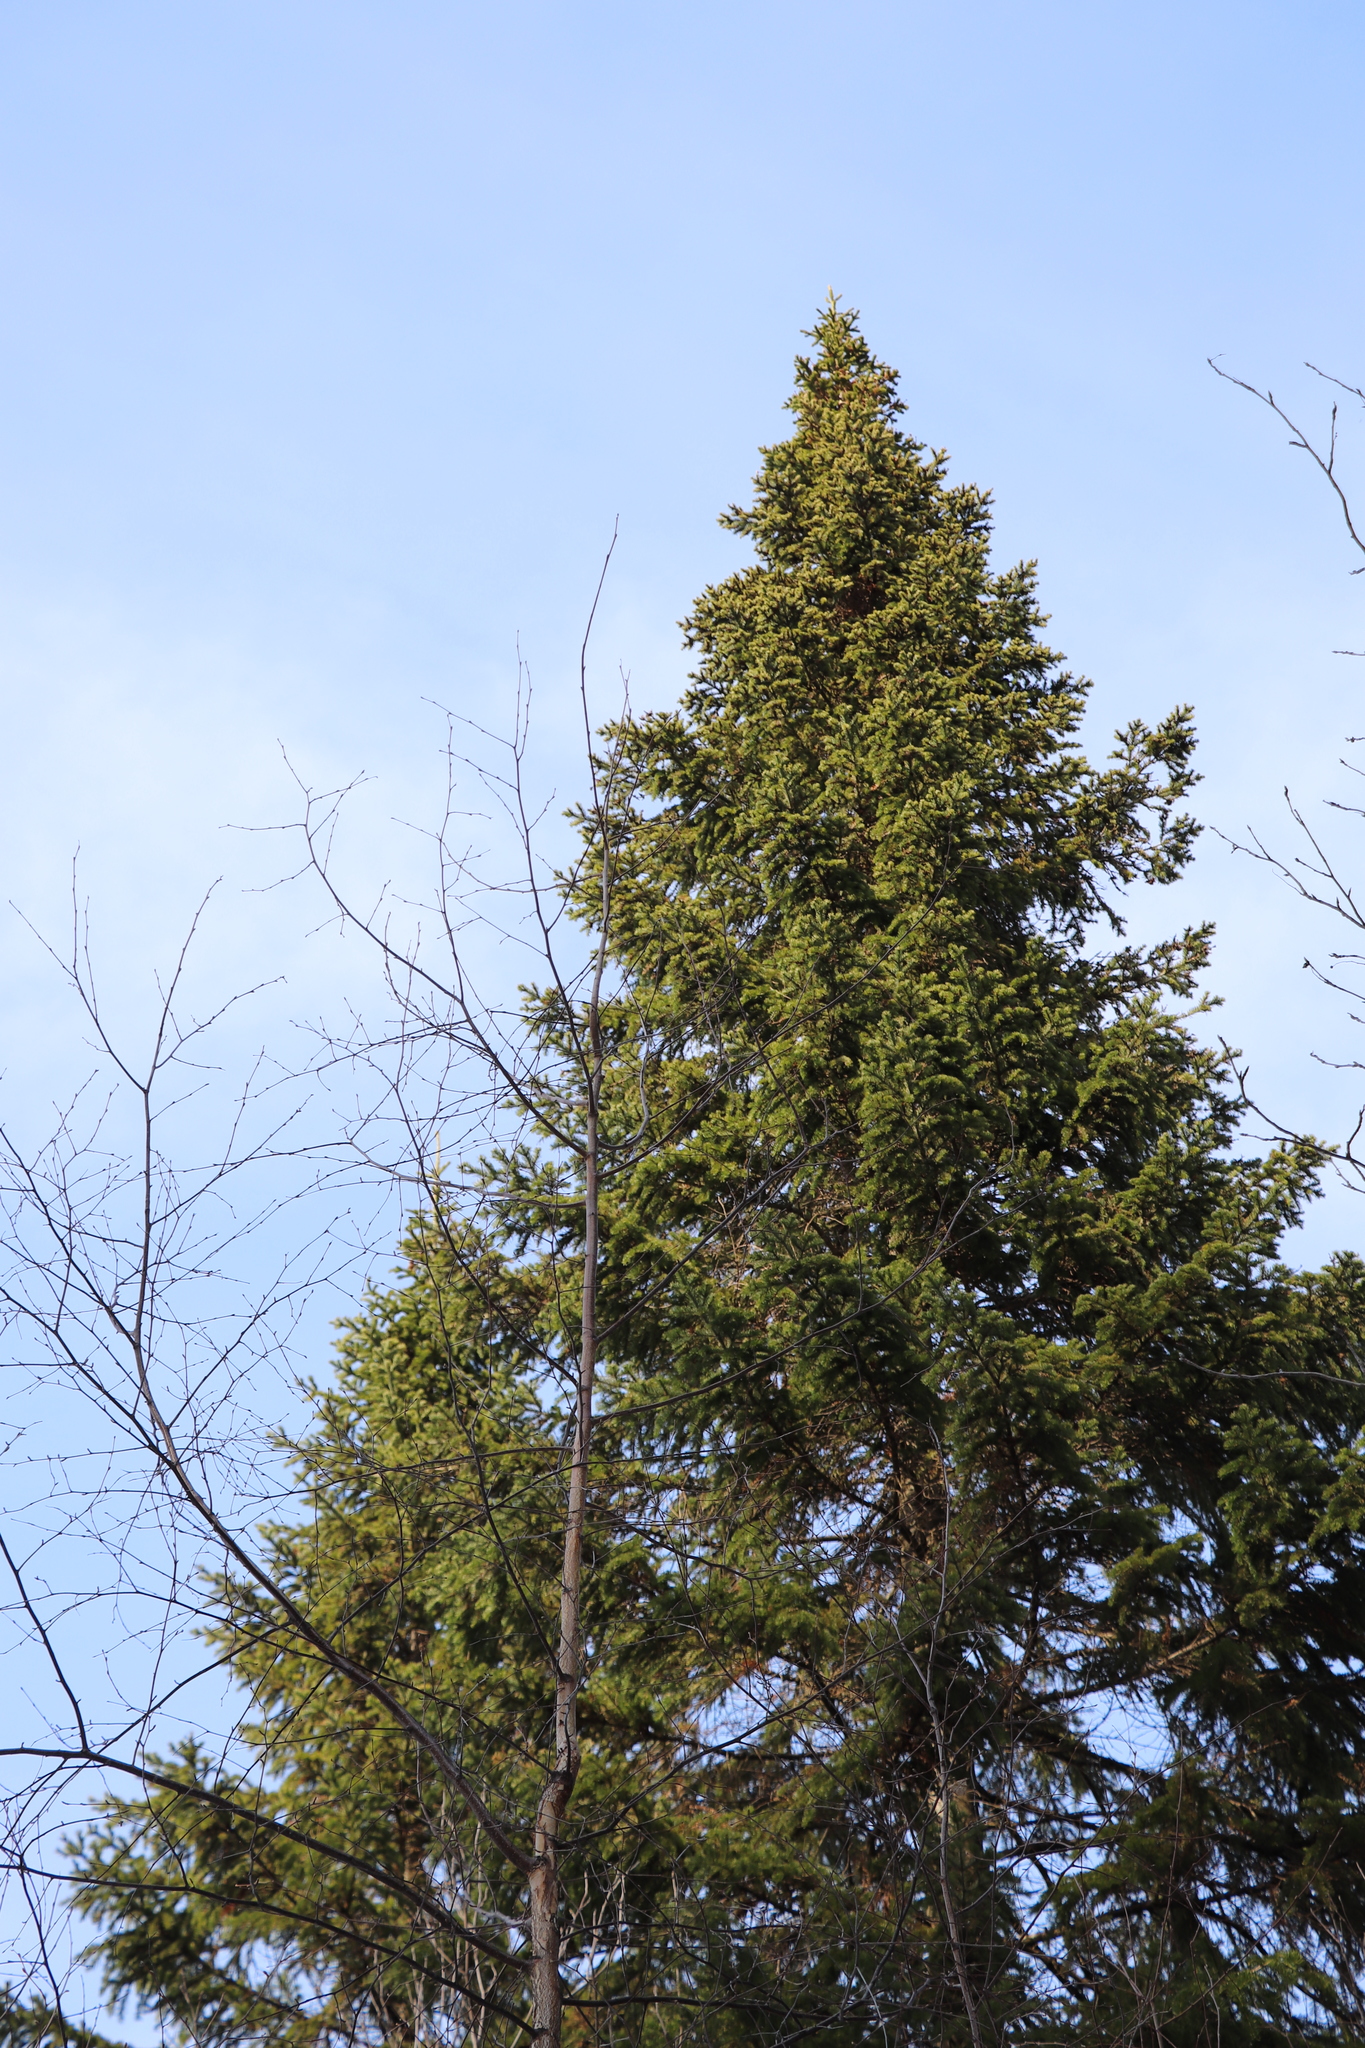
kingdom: Plantae
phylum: Tracheophyta
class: Pinopsida
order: Pinales
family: Pinaceae
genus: Abies
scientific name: Abies sibirica
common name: Siberian fir
